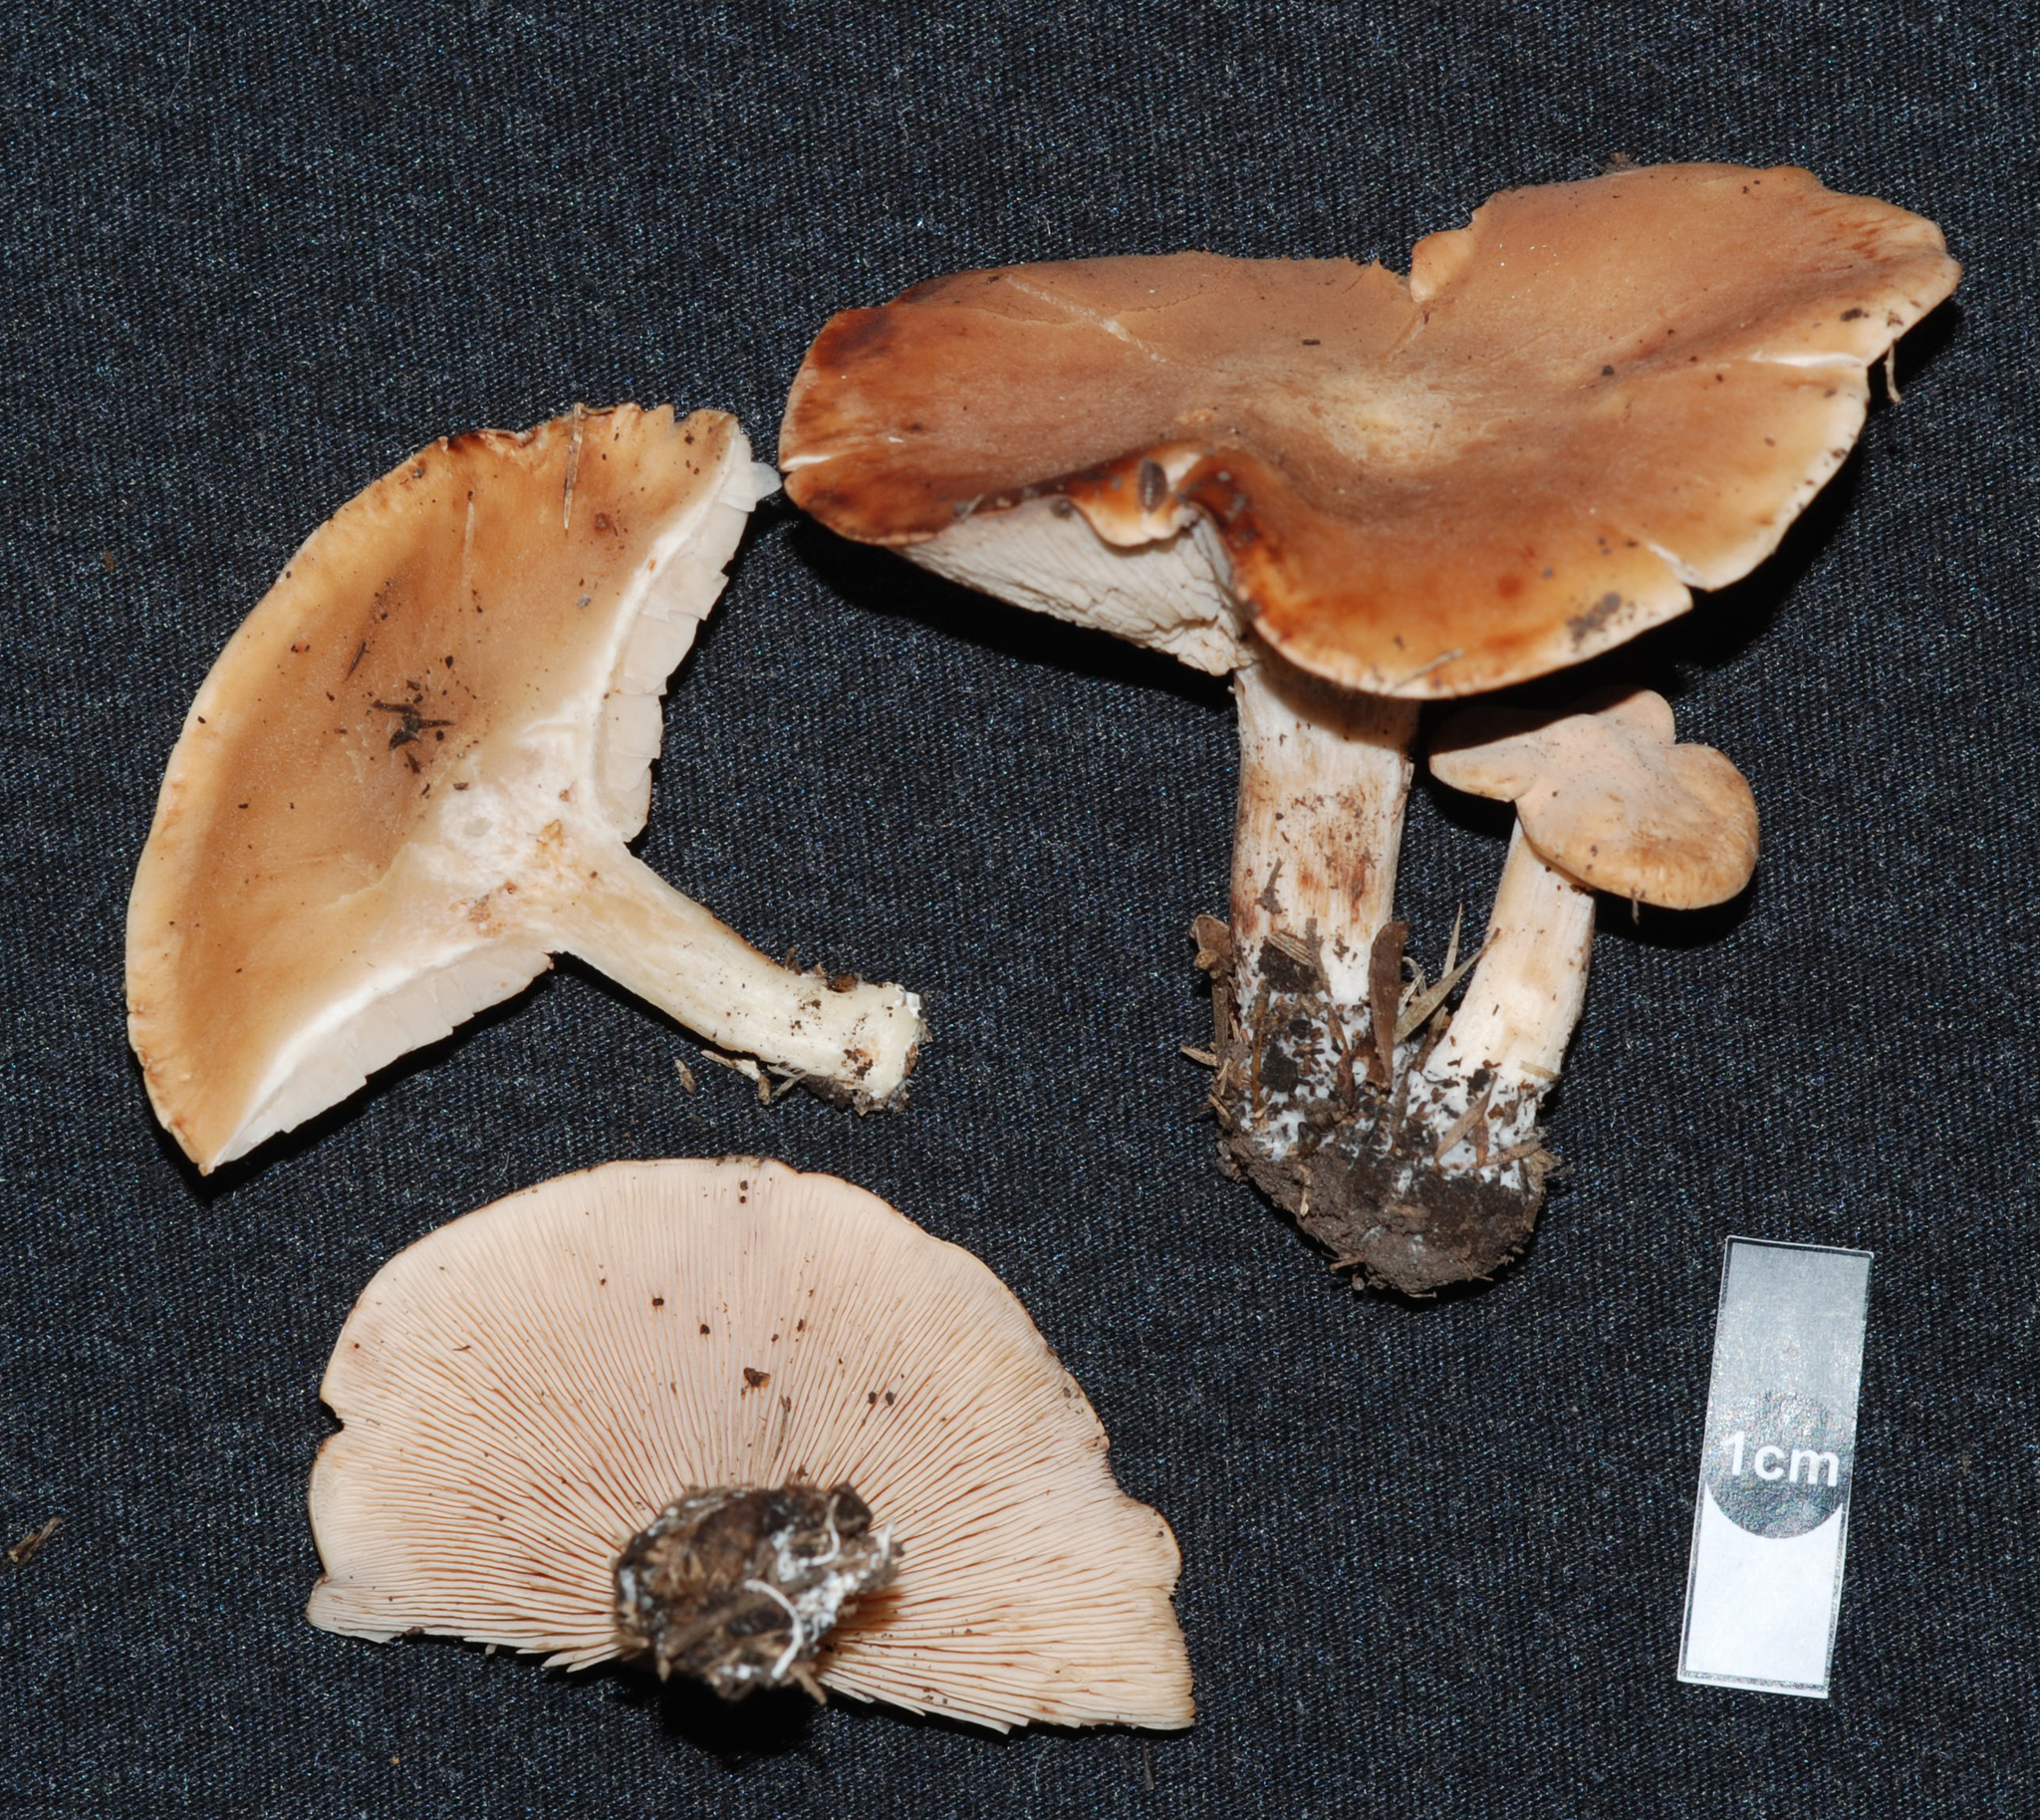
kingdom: Fungi
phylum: Basidiomycota
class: Agaricomycetes
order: Agaricales
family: Entolomataceae
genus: Clitopilus
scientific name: Clitopilus geminus
